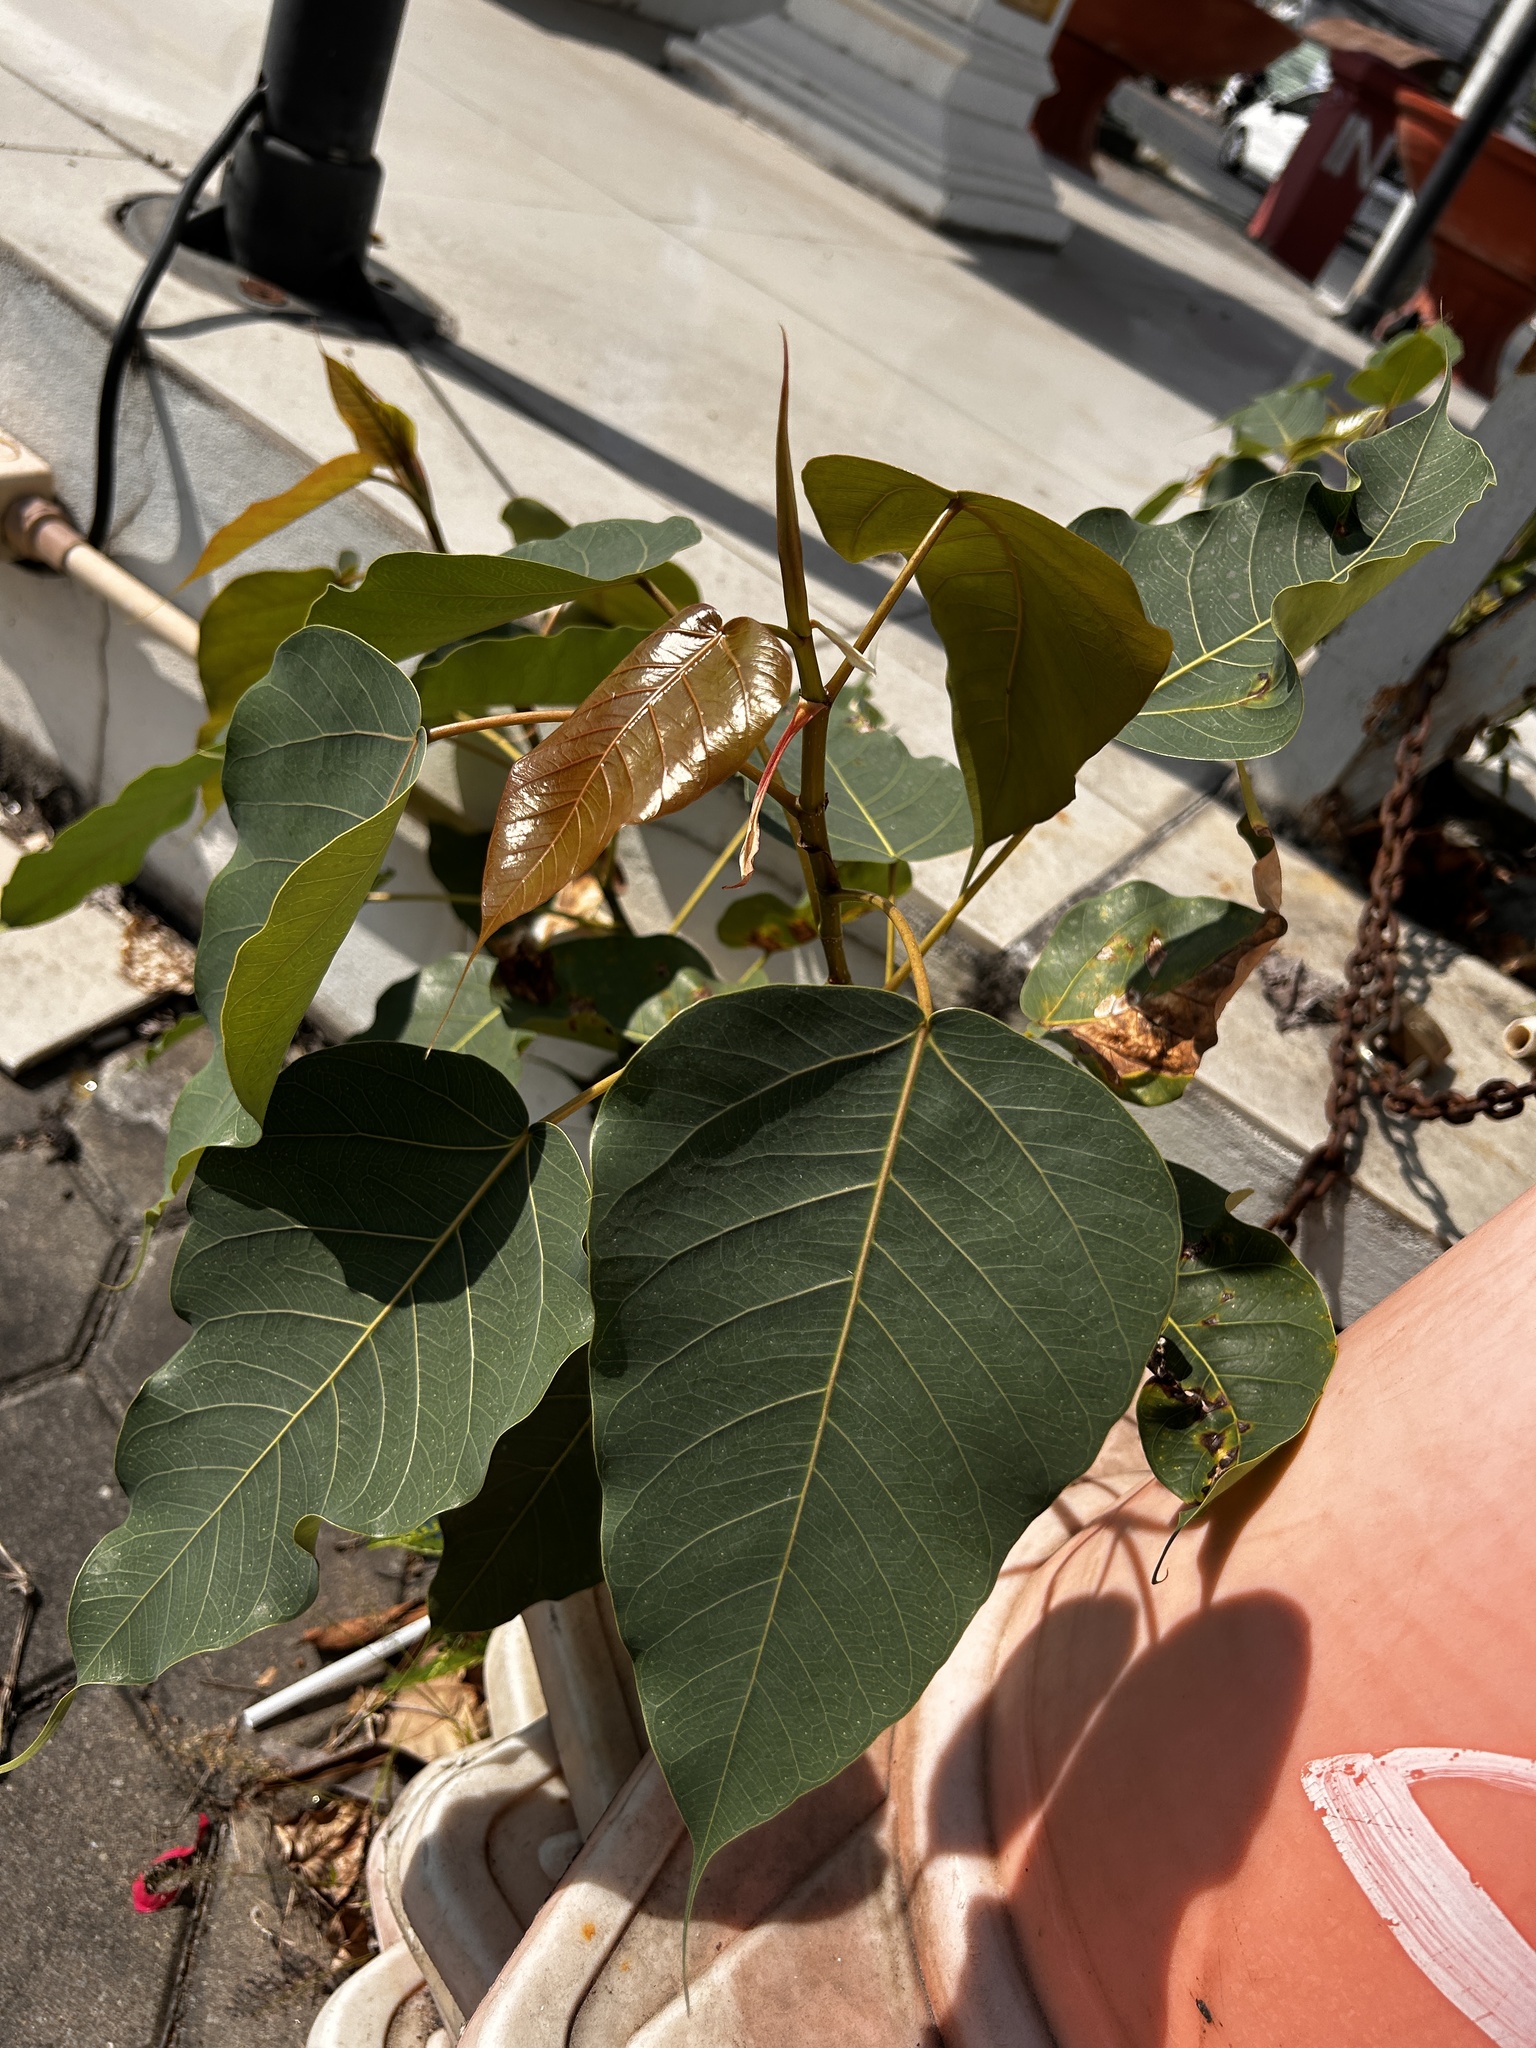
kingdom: Plantae
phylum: Tracheophyta
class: Magnoliopsida
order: Rosales
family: Moraceae
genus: Ficus
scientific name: Ficus religiosa
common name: Bodhi tree
